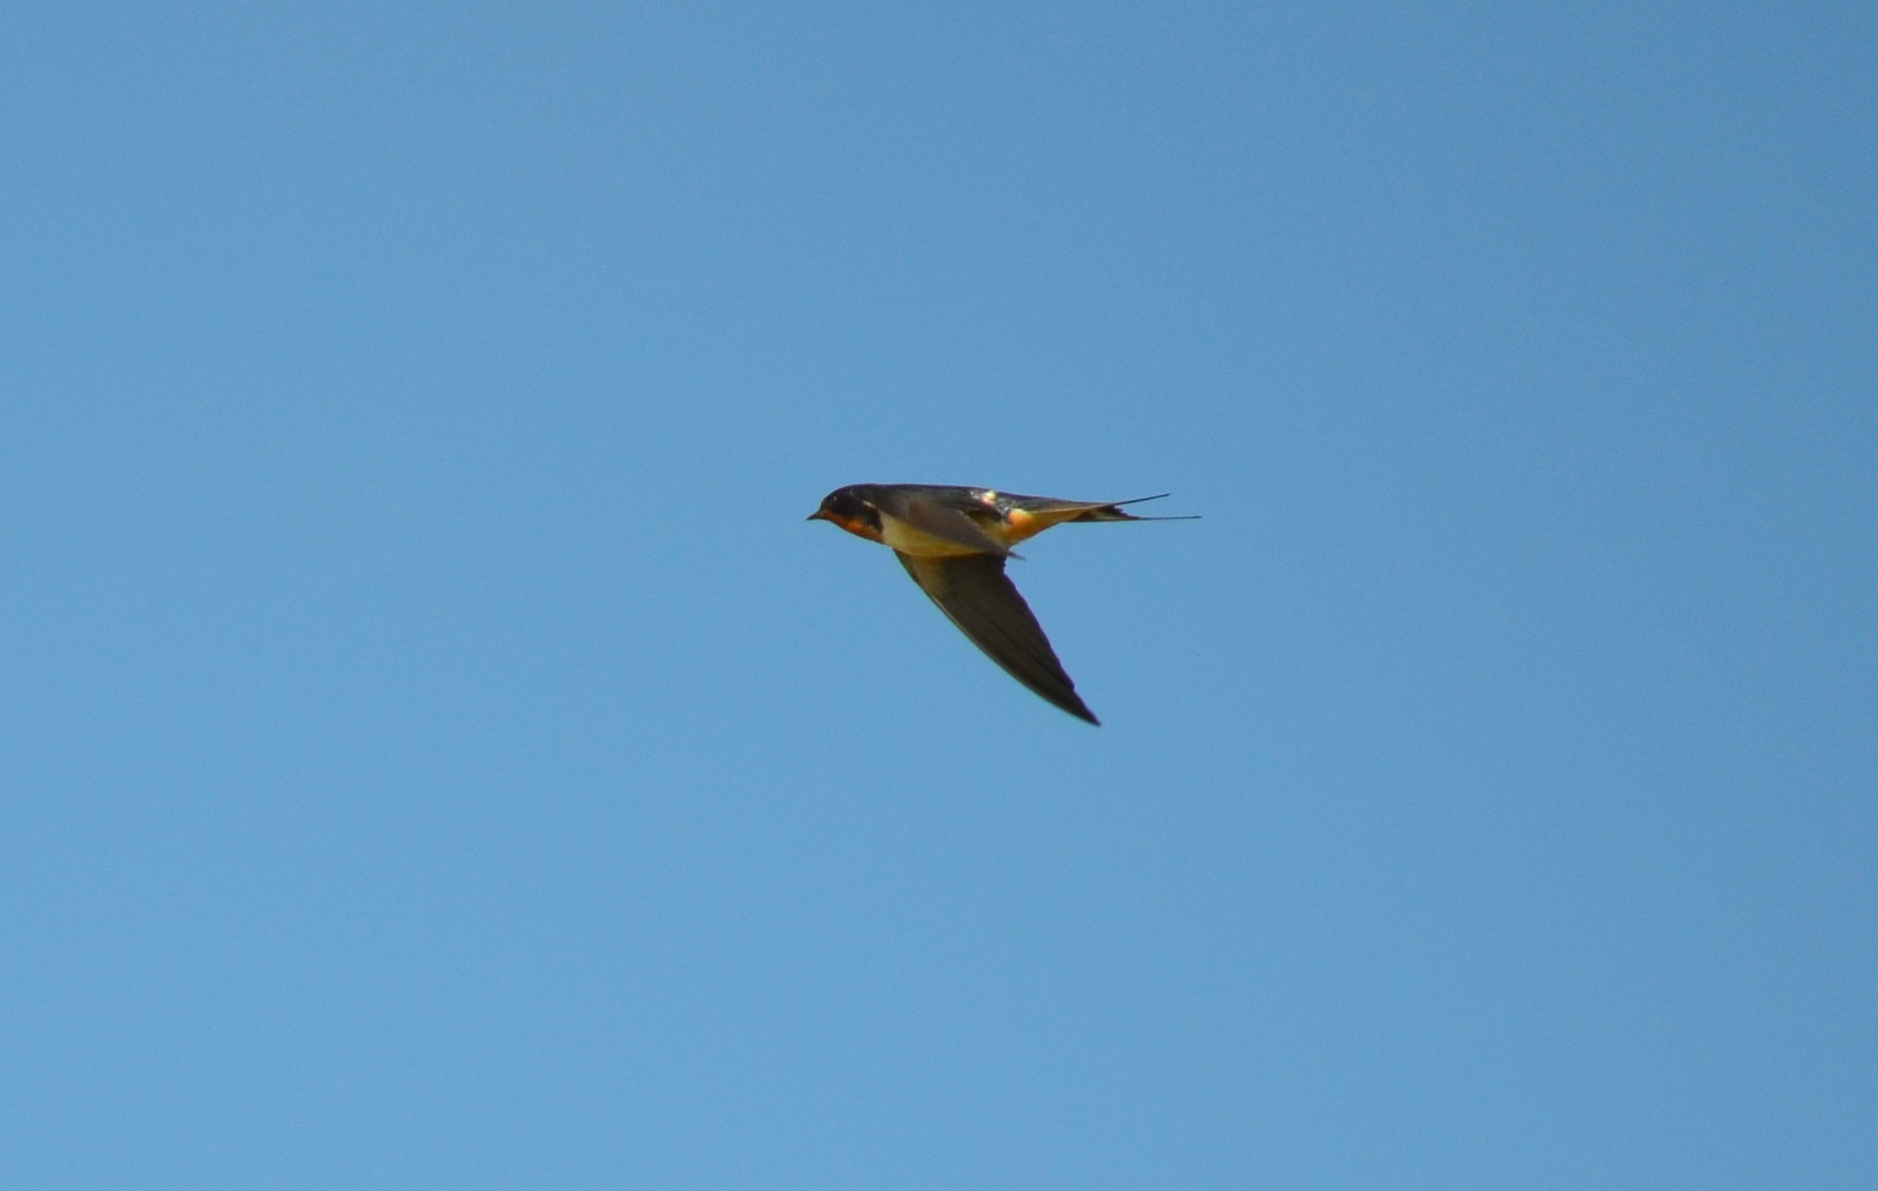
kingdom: Animalia
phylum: Chordata
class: Aves
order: Passeriformes
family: Hirundinidae
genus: Hirundo
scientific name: Hirundo rustica
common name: Barn swallow
